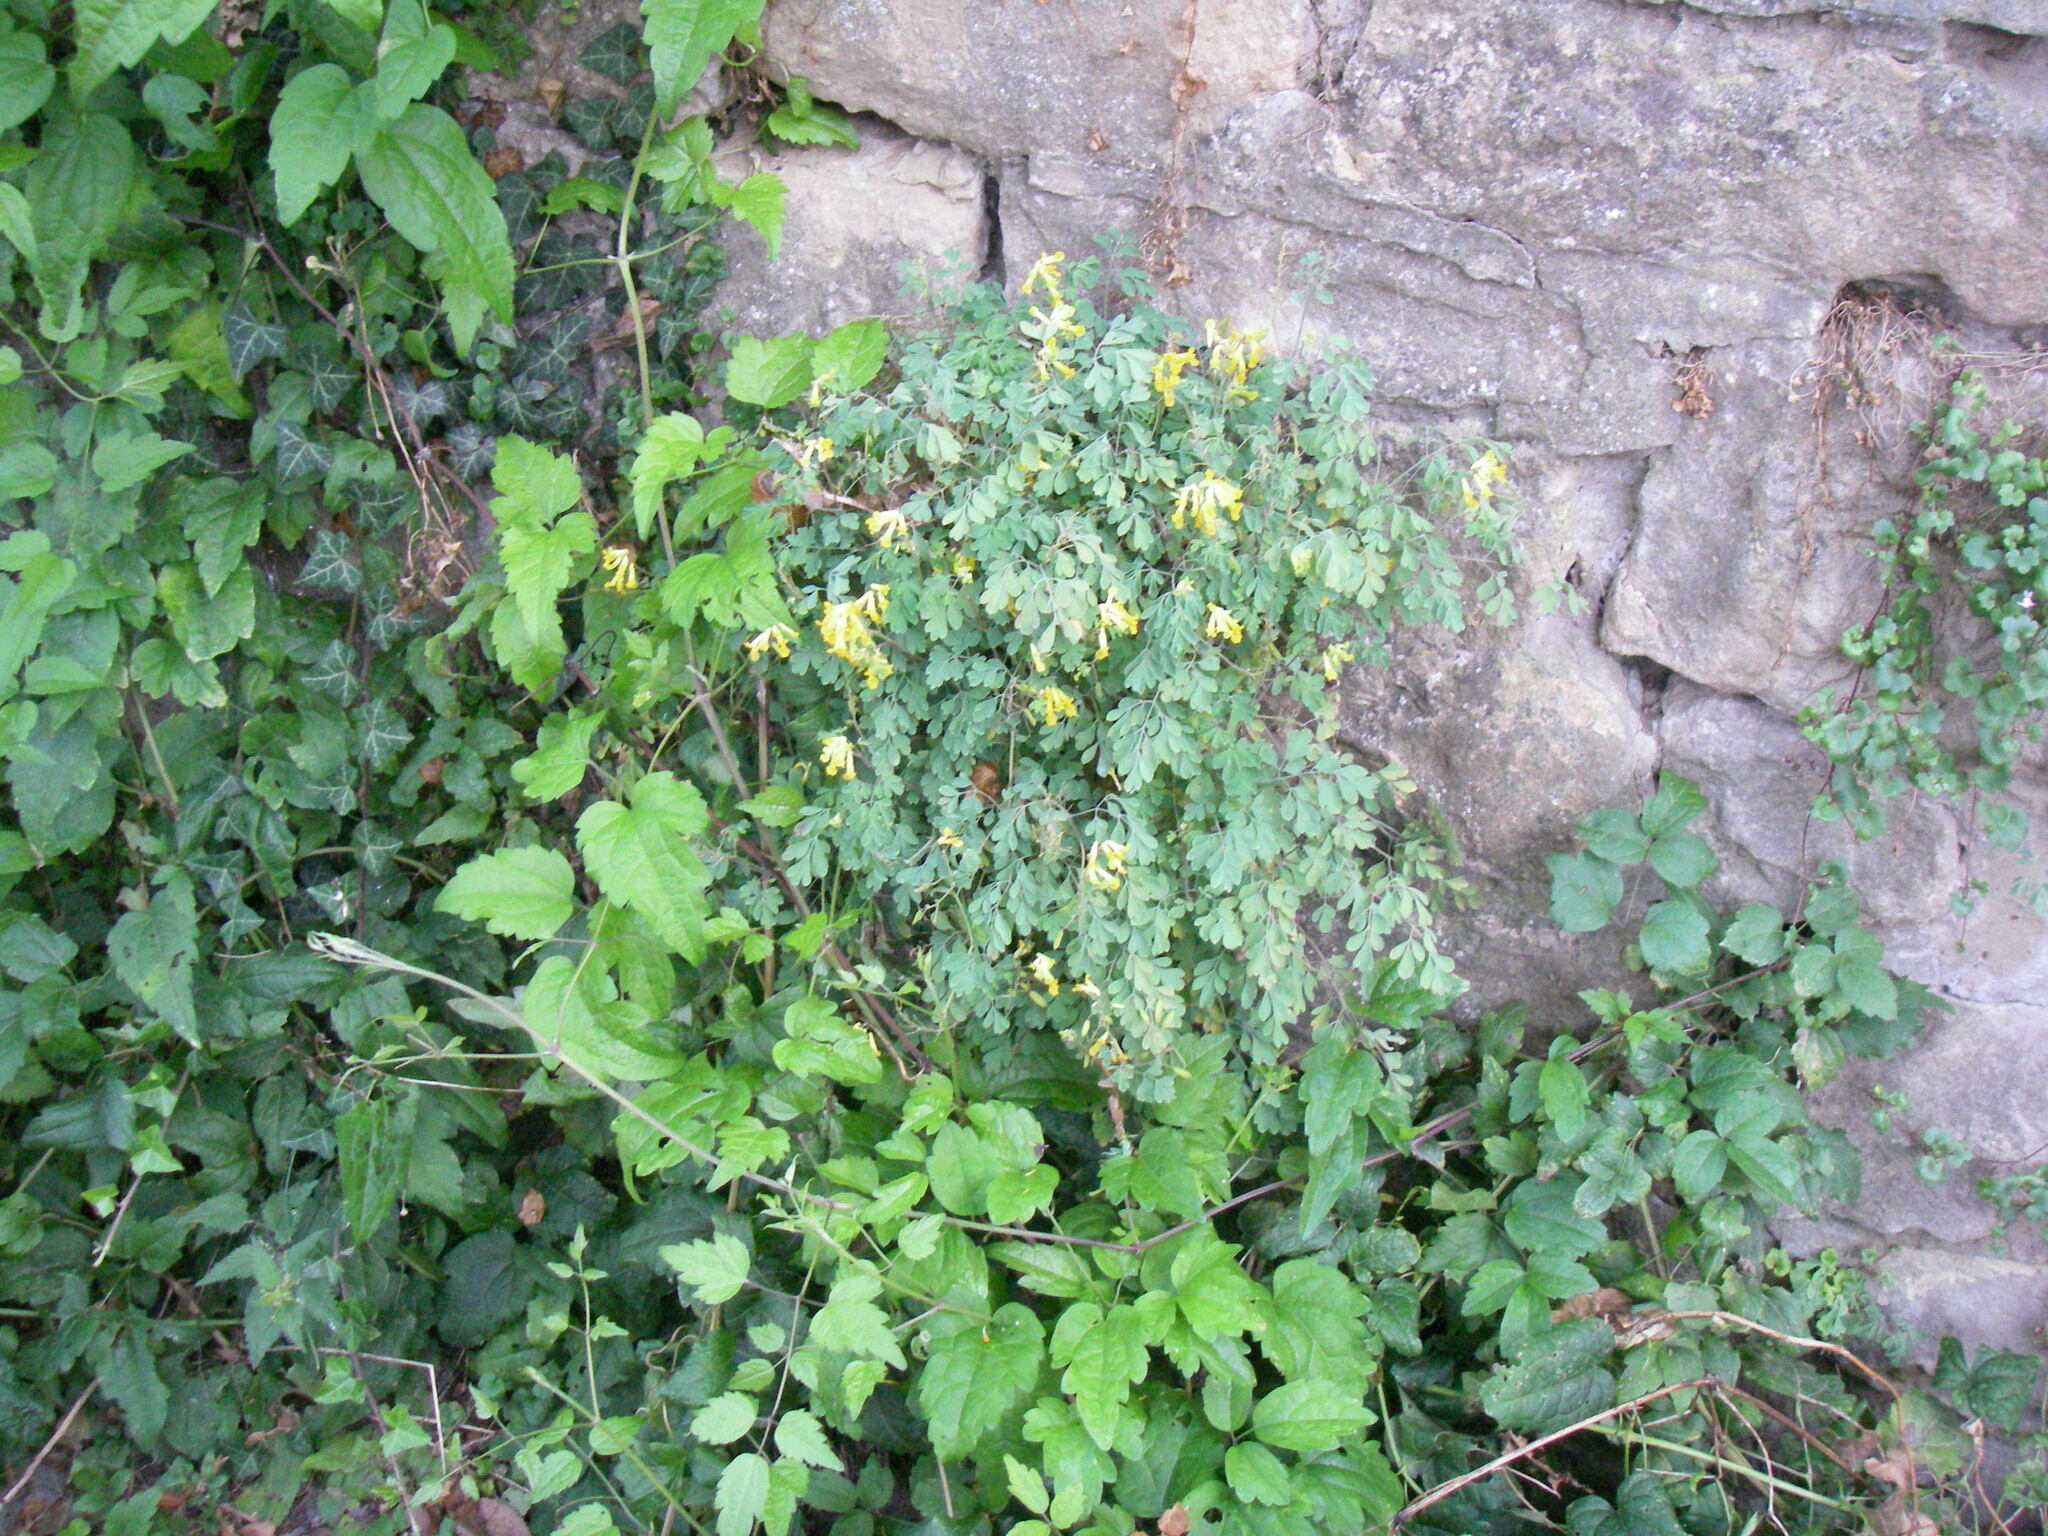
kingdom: Plantae
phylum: Tracheophyta
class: Magnoliopsida
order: Ranunculales
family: Papaveraceae
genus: Pseudofumaria
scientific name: Pseudofumaria lutea
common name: Yellow corydalis
